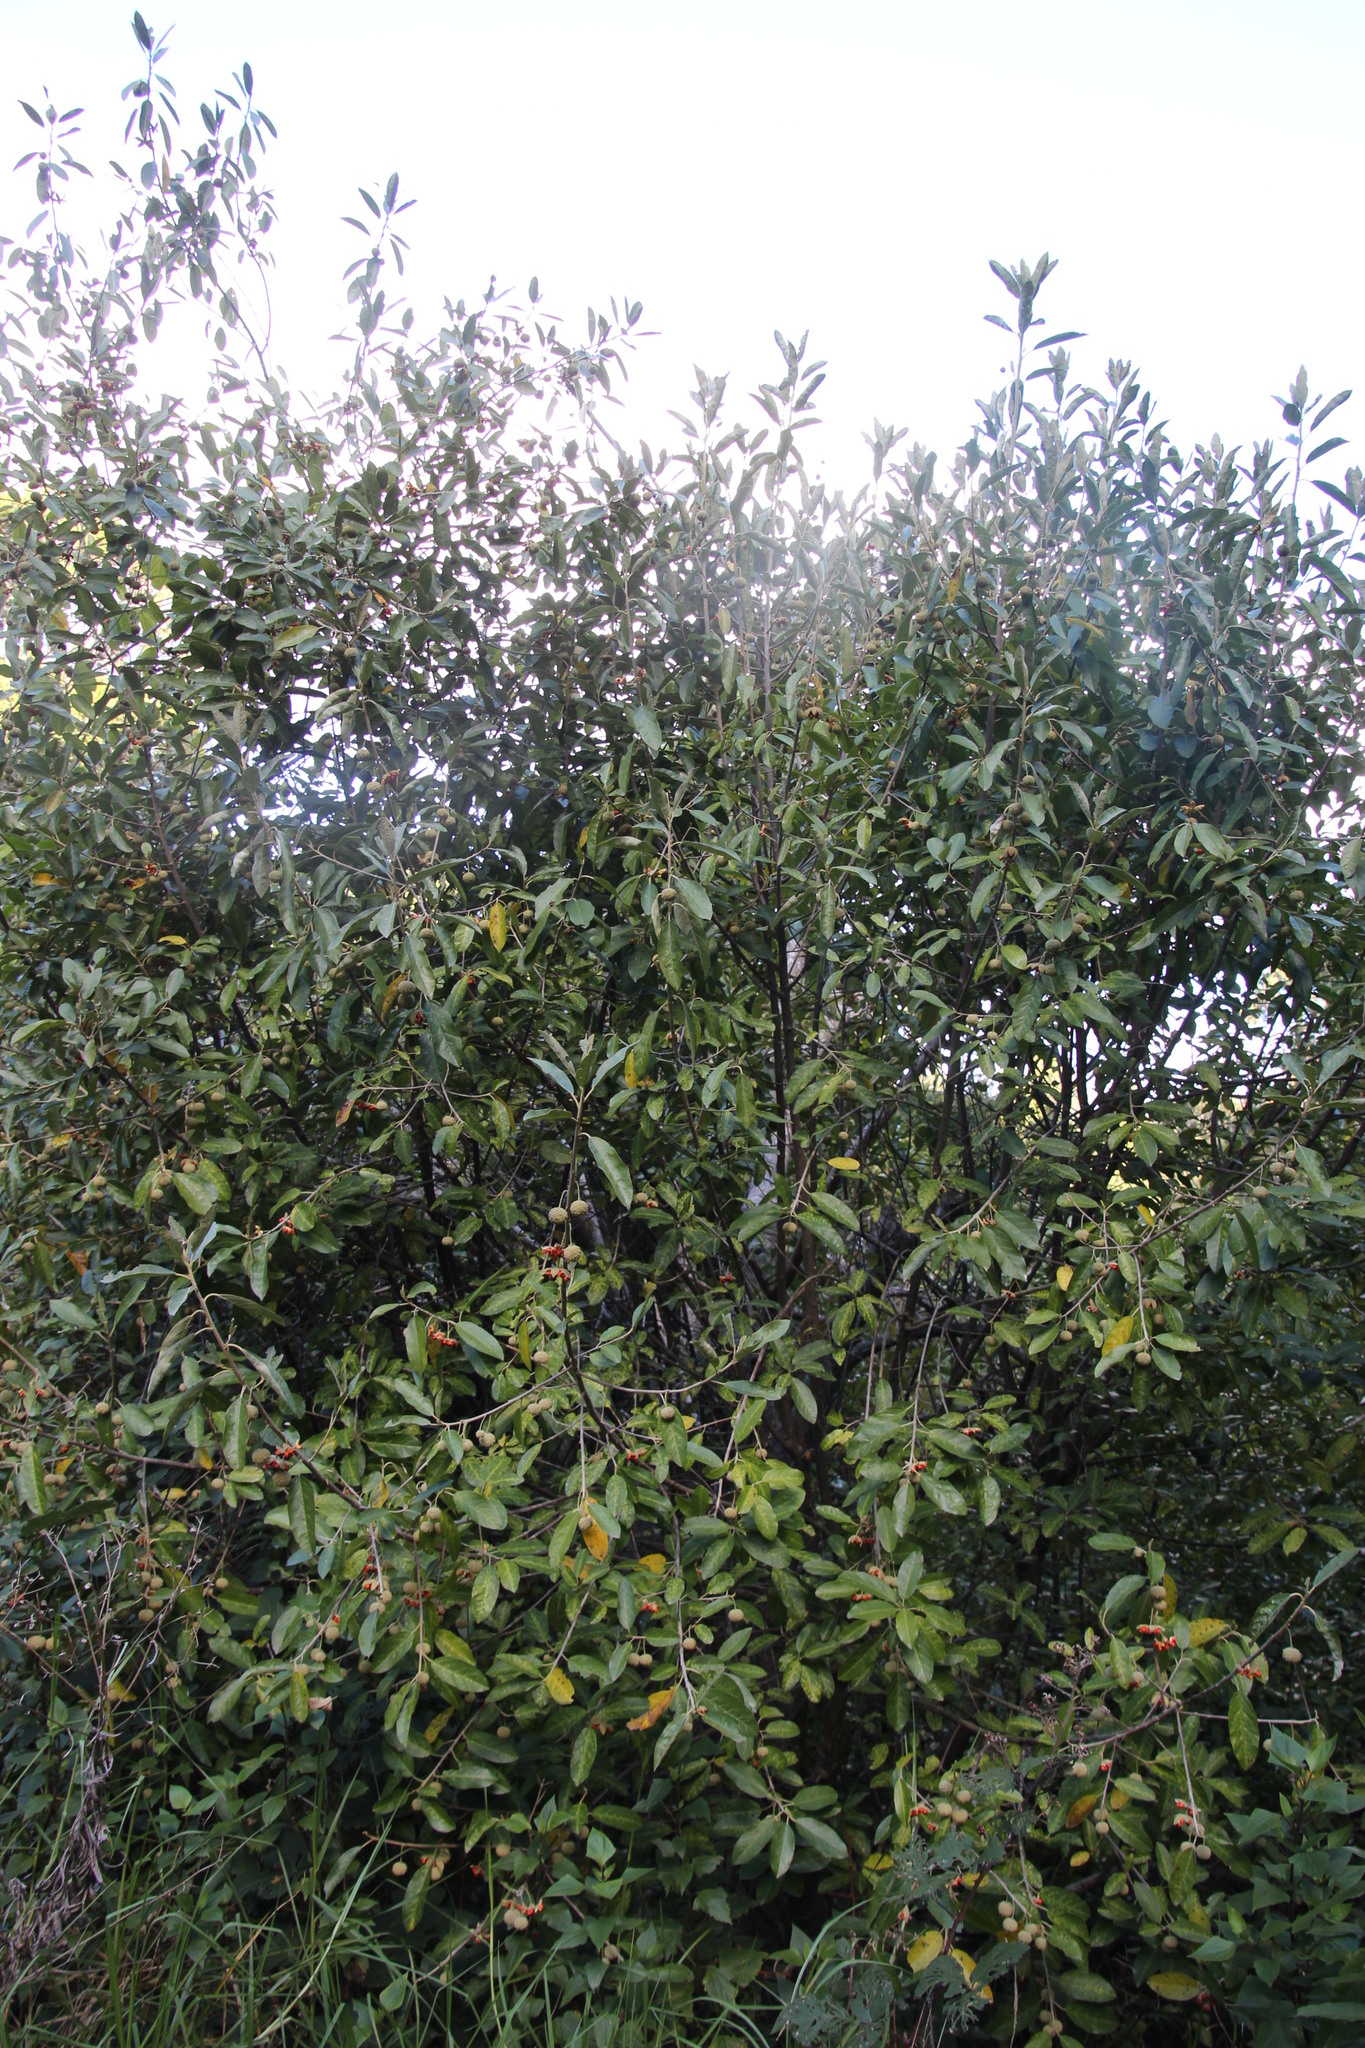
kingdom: Plantae
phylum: Tracheophyta
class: Magnoliopsida
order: Malpighiales
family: Achariaceae
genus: Kiggelaria
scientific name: Kiggelaria africana
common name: Wild peach
